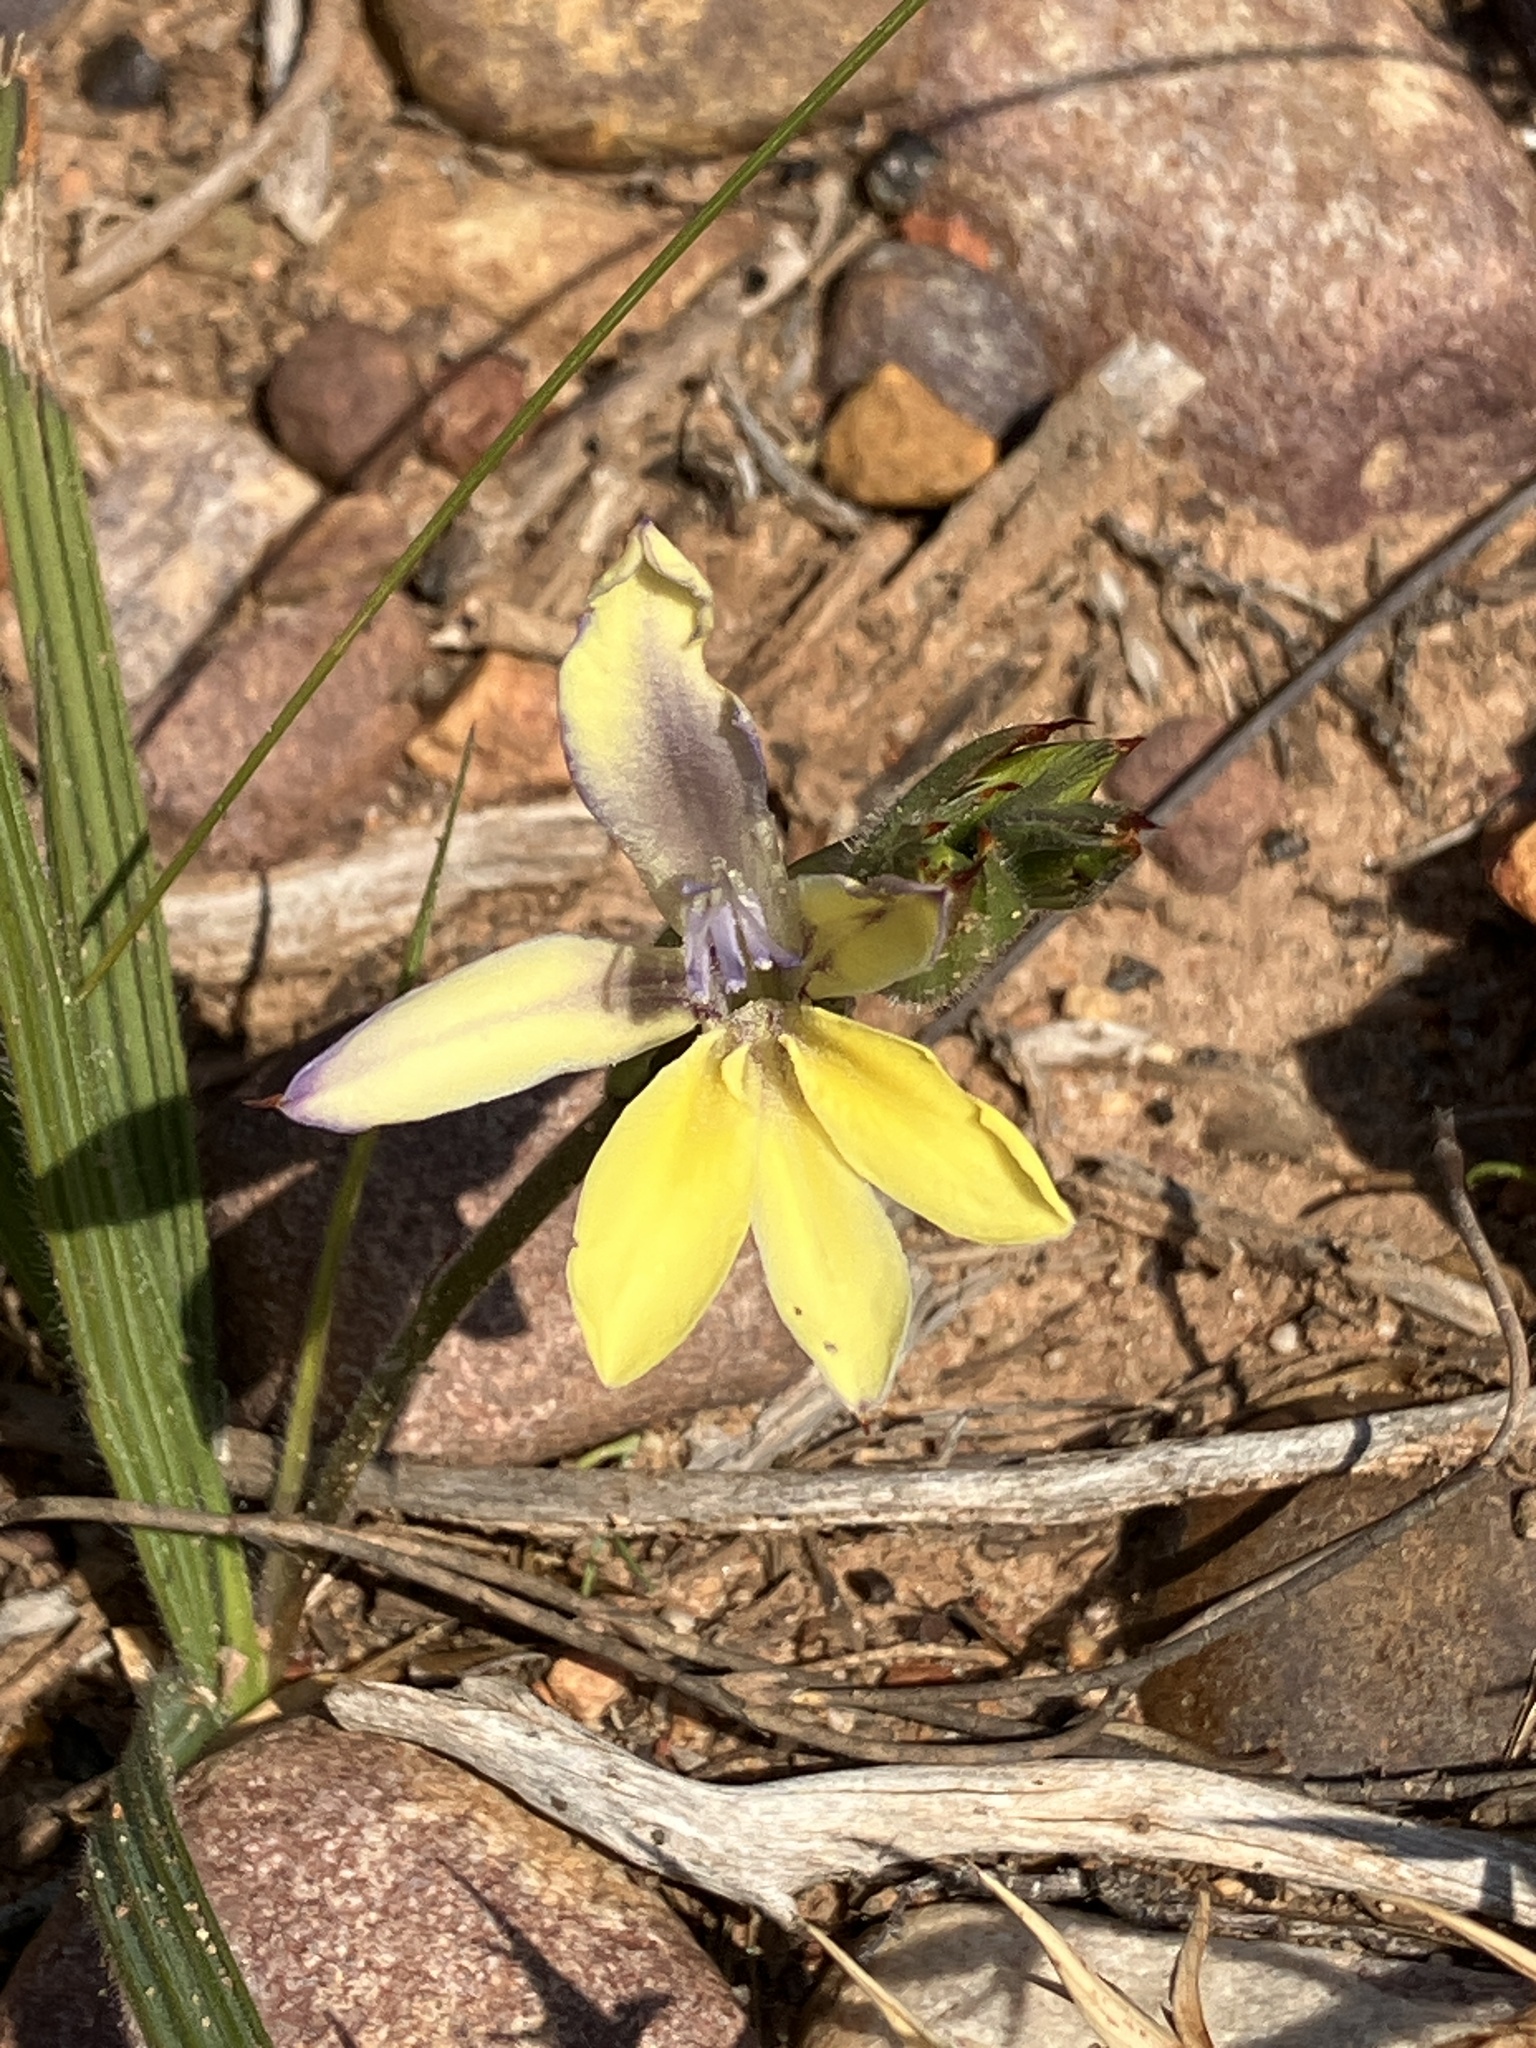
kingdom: Plantae
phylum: Tracheophyta
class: Liliopsida
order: Asparagales
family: Iridaceae
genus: Babiana
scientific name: Babiana patula
